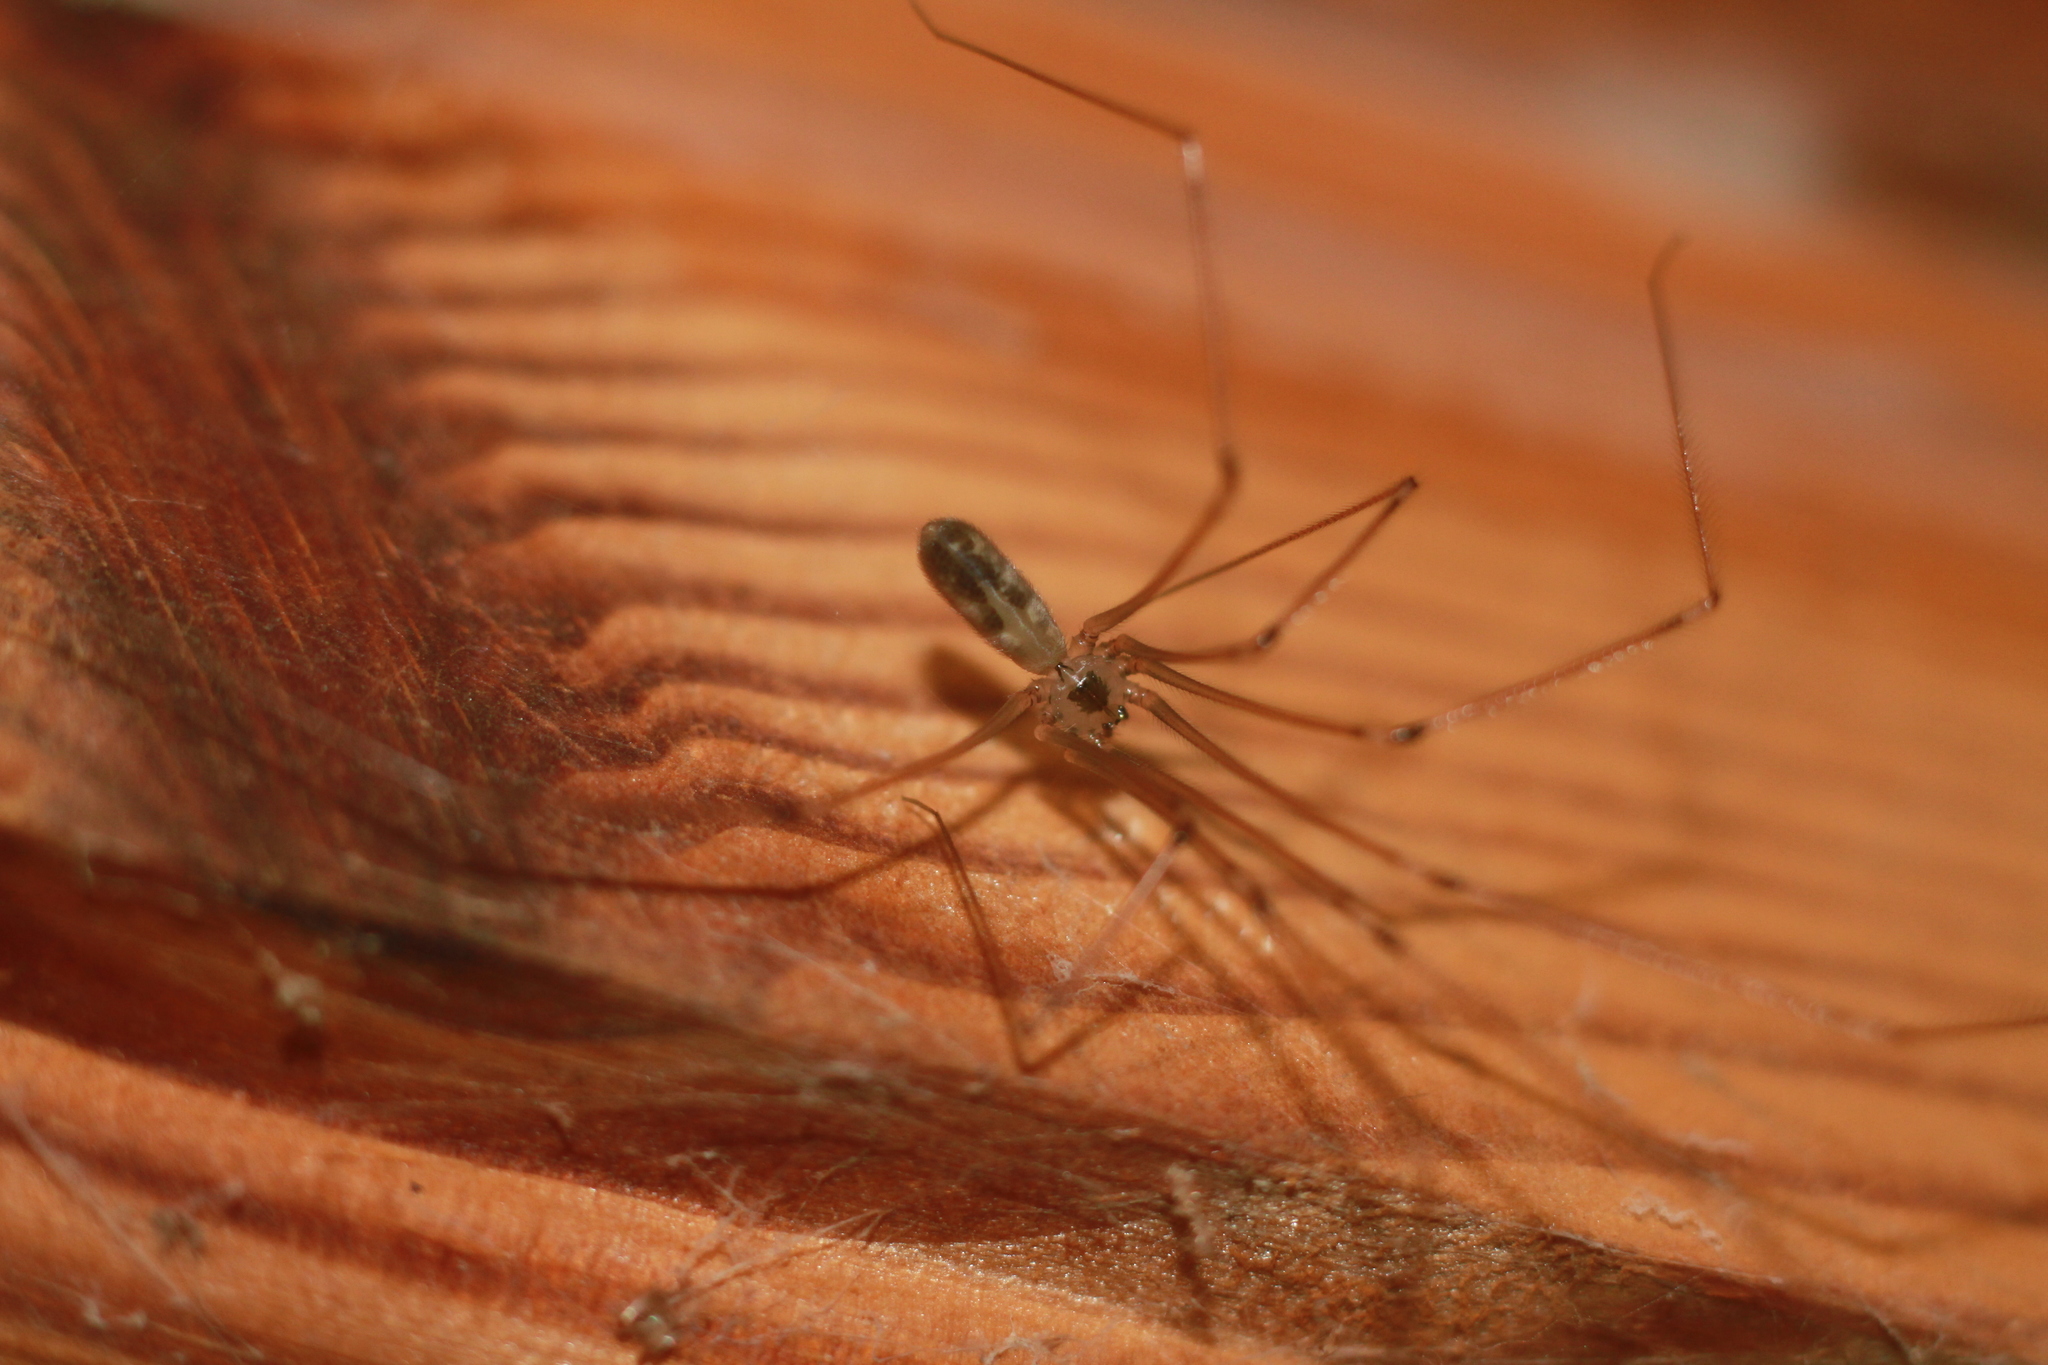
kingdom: Animalia
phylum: Arthropoda
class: Arachnida
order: Araneae
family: Pholcidae
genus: Pholcus
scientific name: Pholcus phalangioides
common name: Longbodied cellar spider
